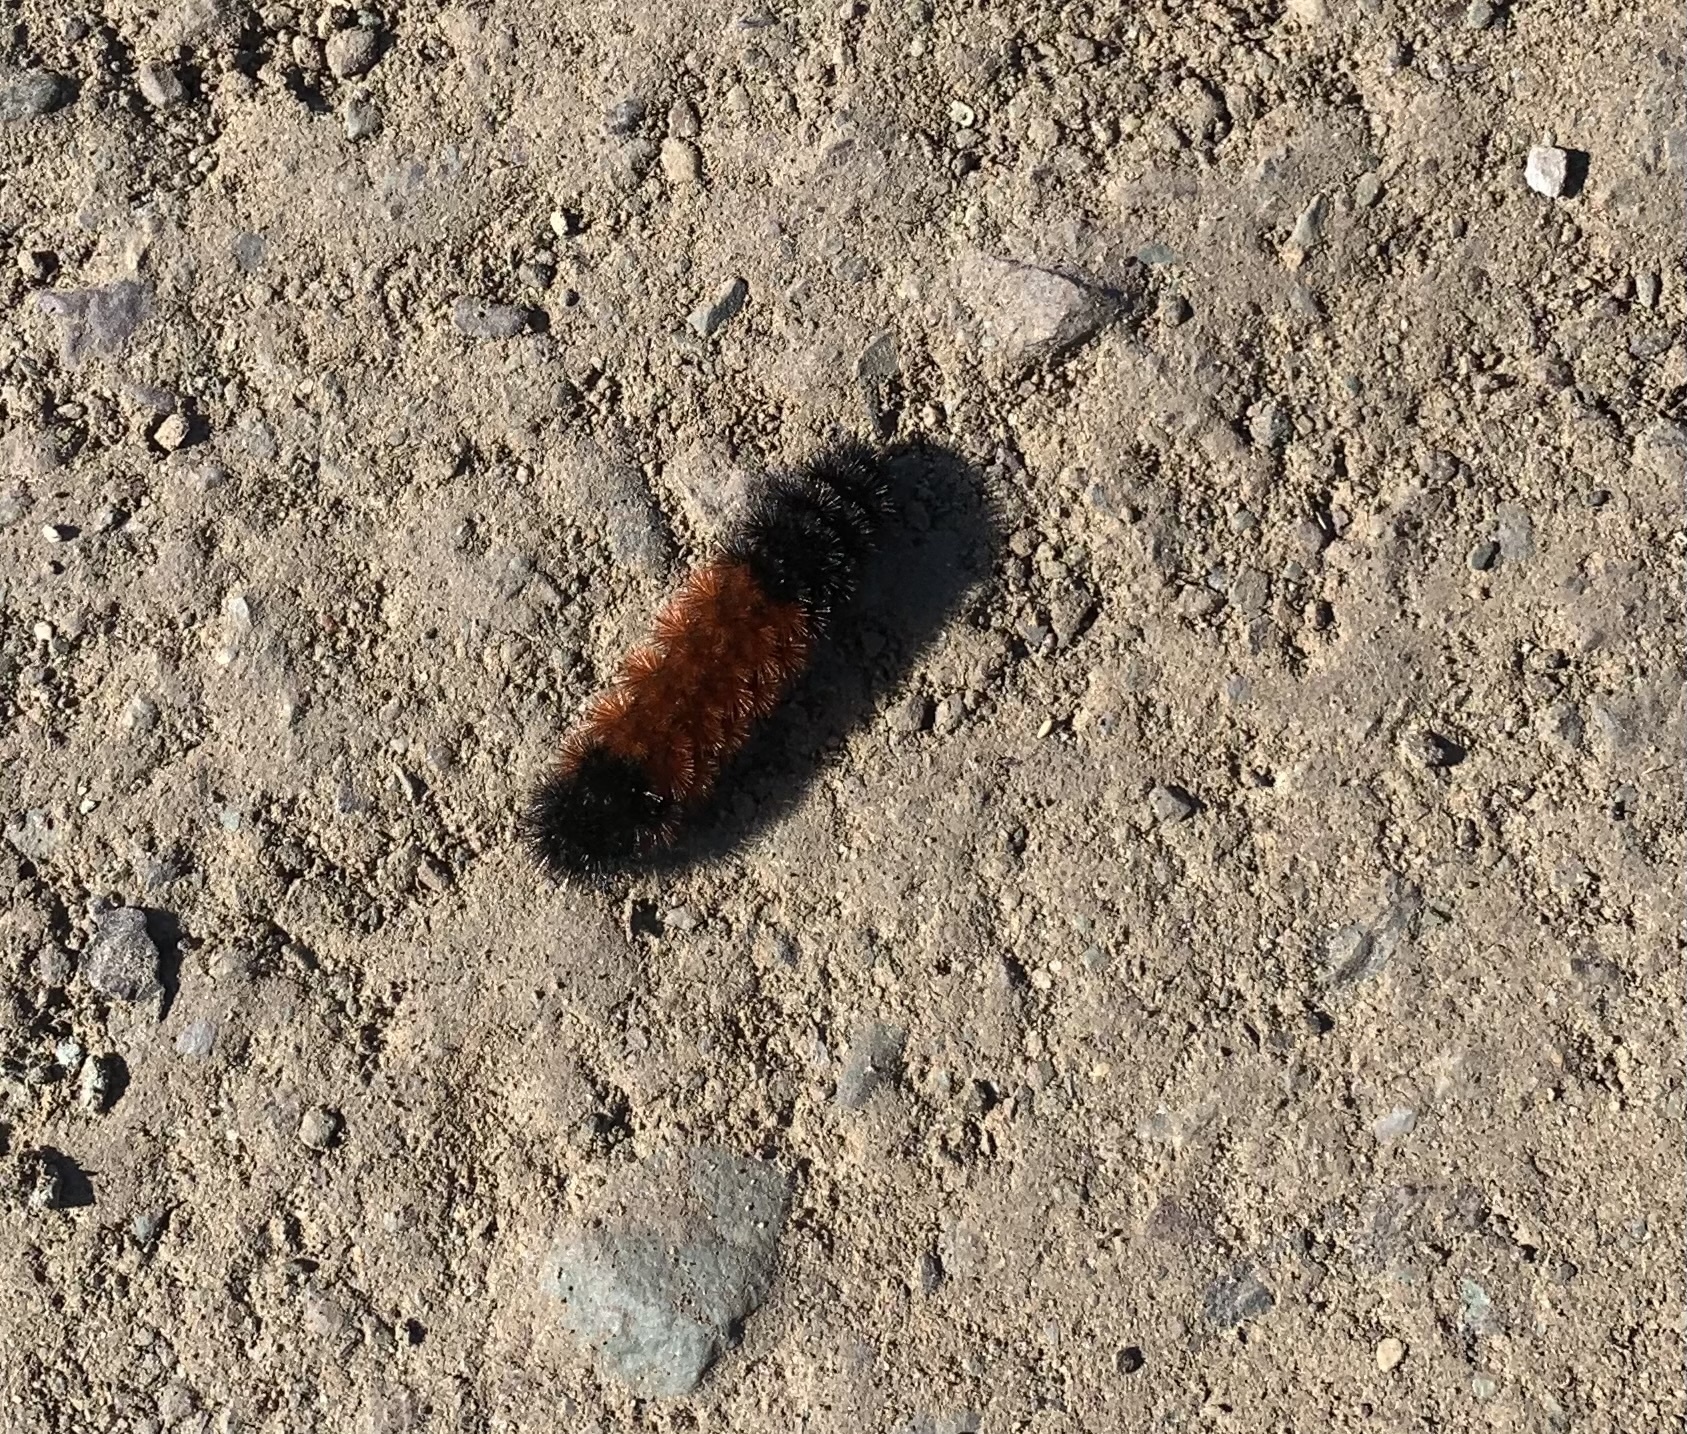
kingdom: Animalia
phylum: Arthropoda
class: Insecta
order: Lepidoptera
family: Erebidae
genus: Pyrrharctia
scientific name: Pyrrharctia isabella
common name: Isabella tiger moth
